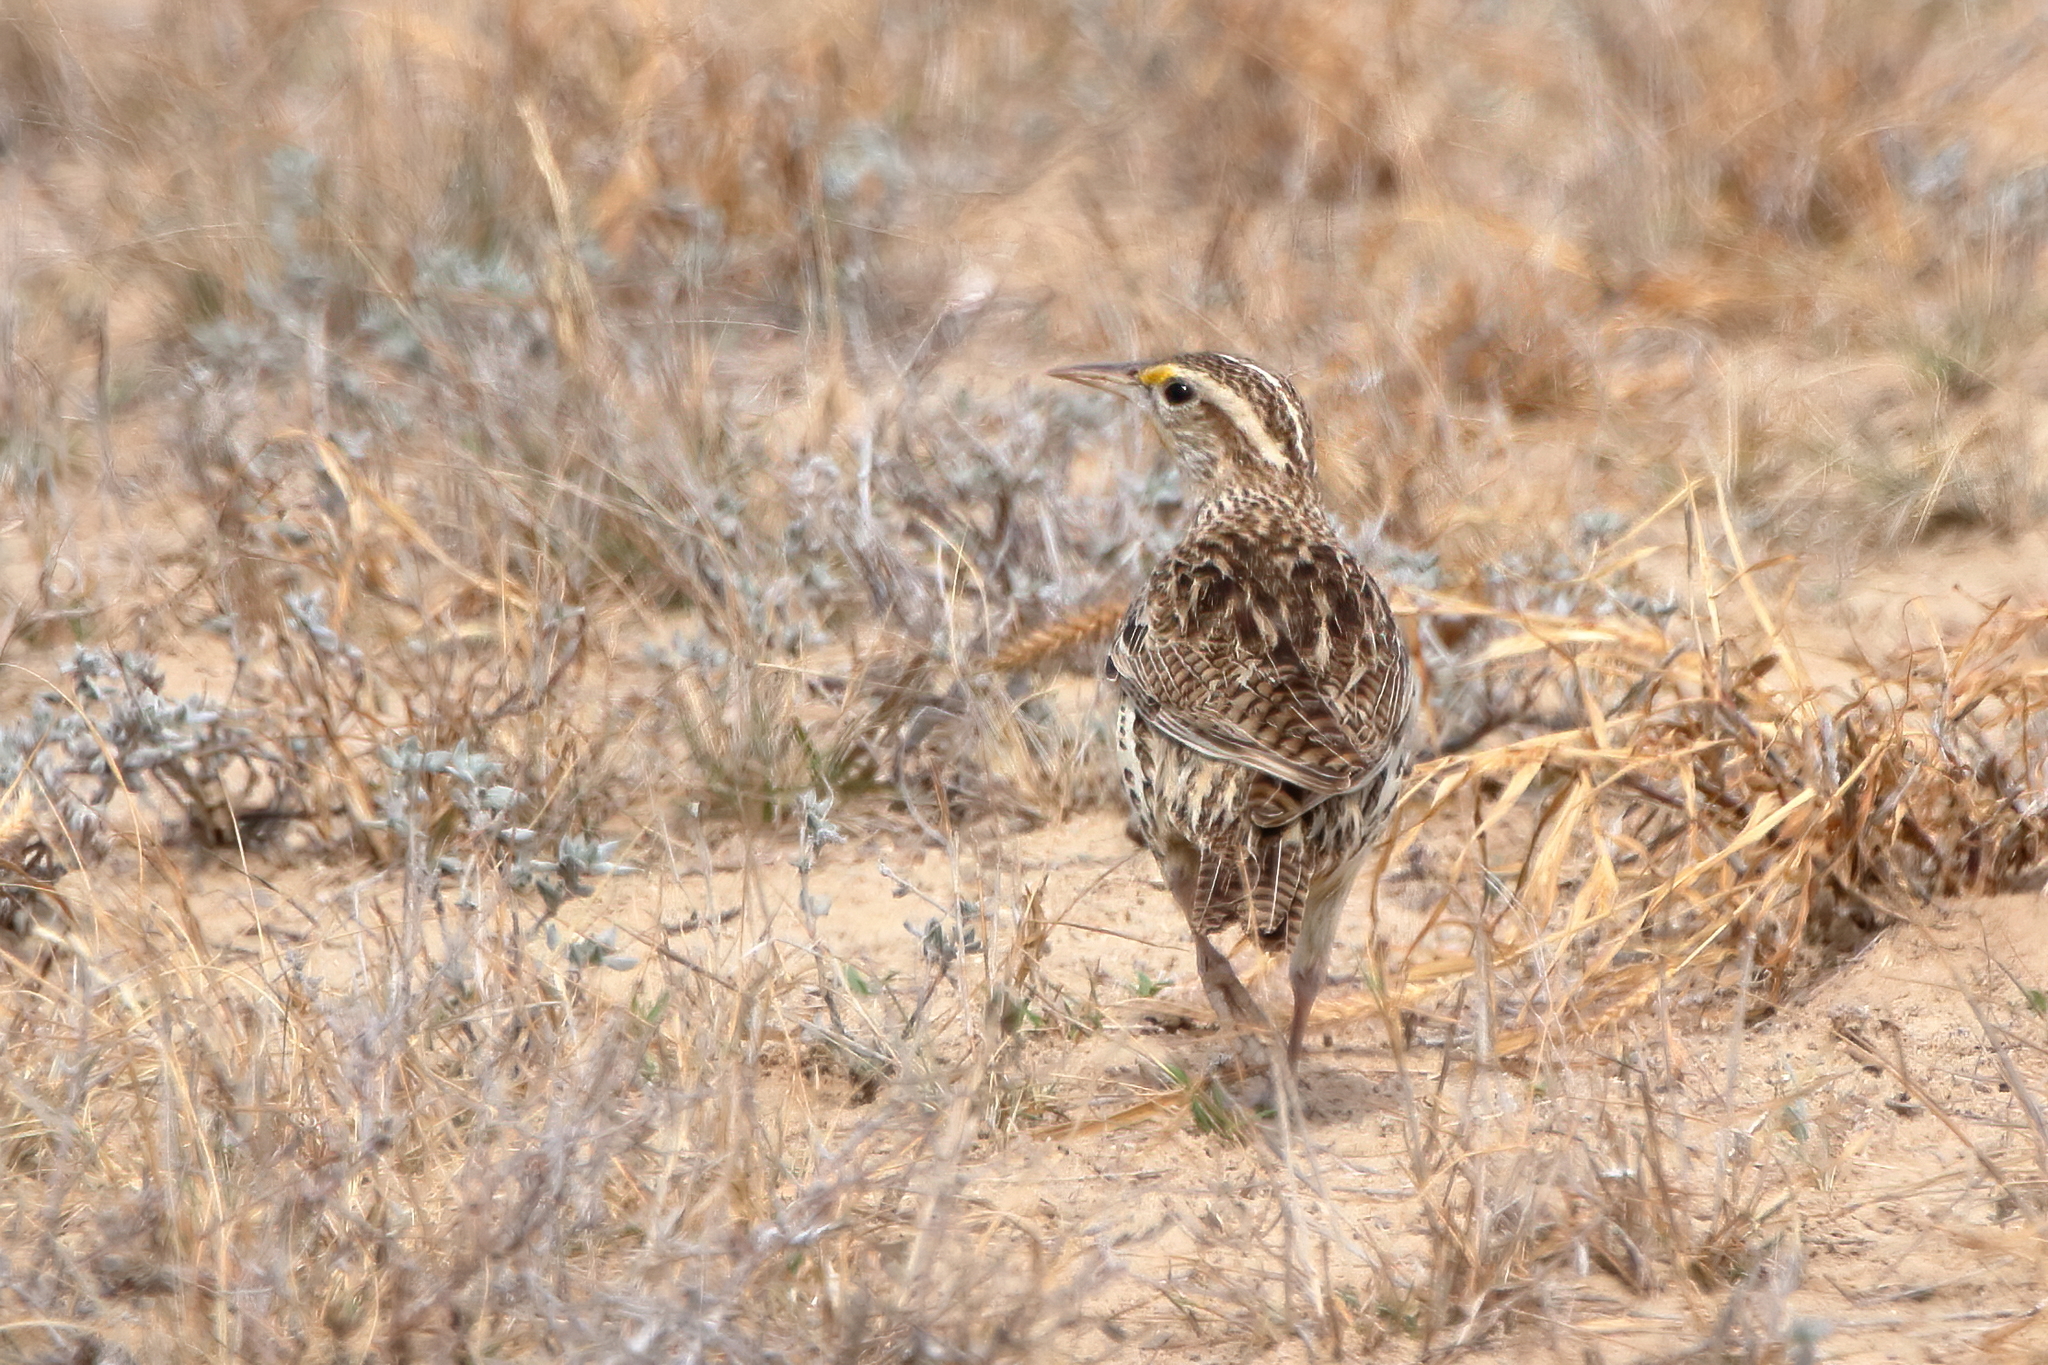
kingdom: Animalia
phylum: Chordata
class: Aves
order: Passeriformes
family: Icteridae
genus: Sturnella
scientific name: Sturnella neglecta
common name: Western meadowlark
